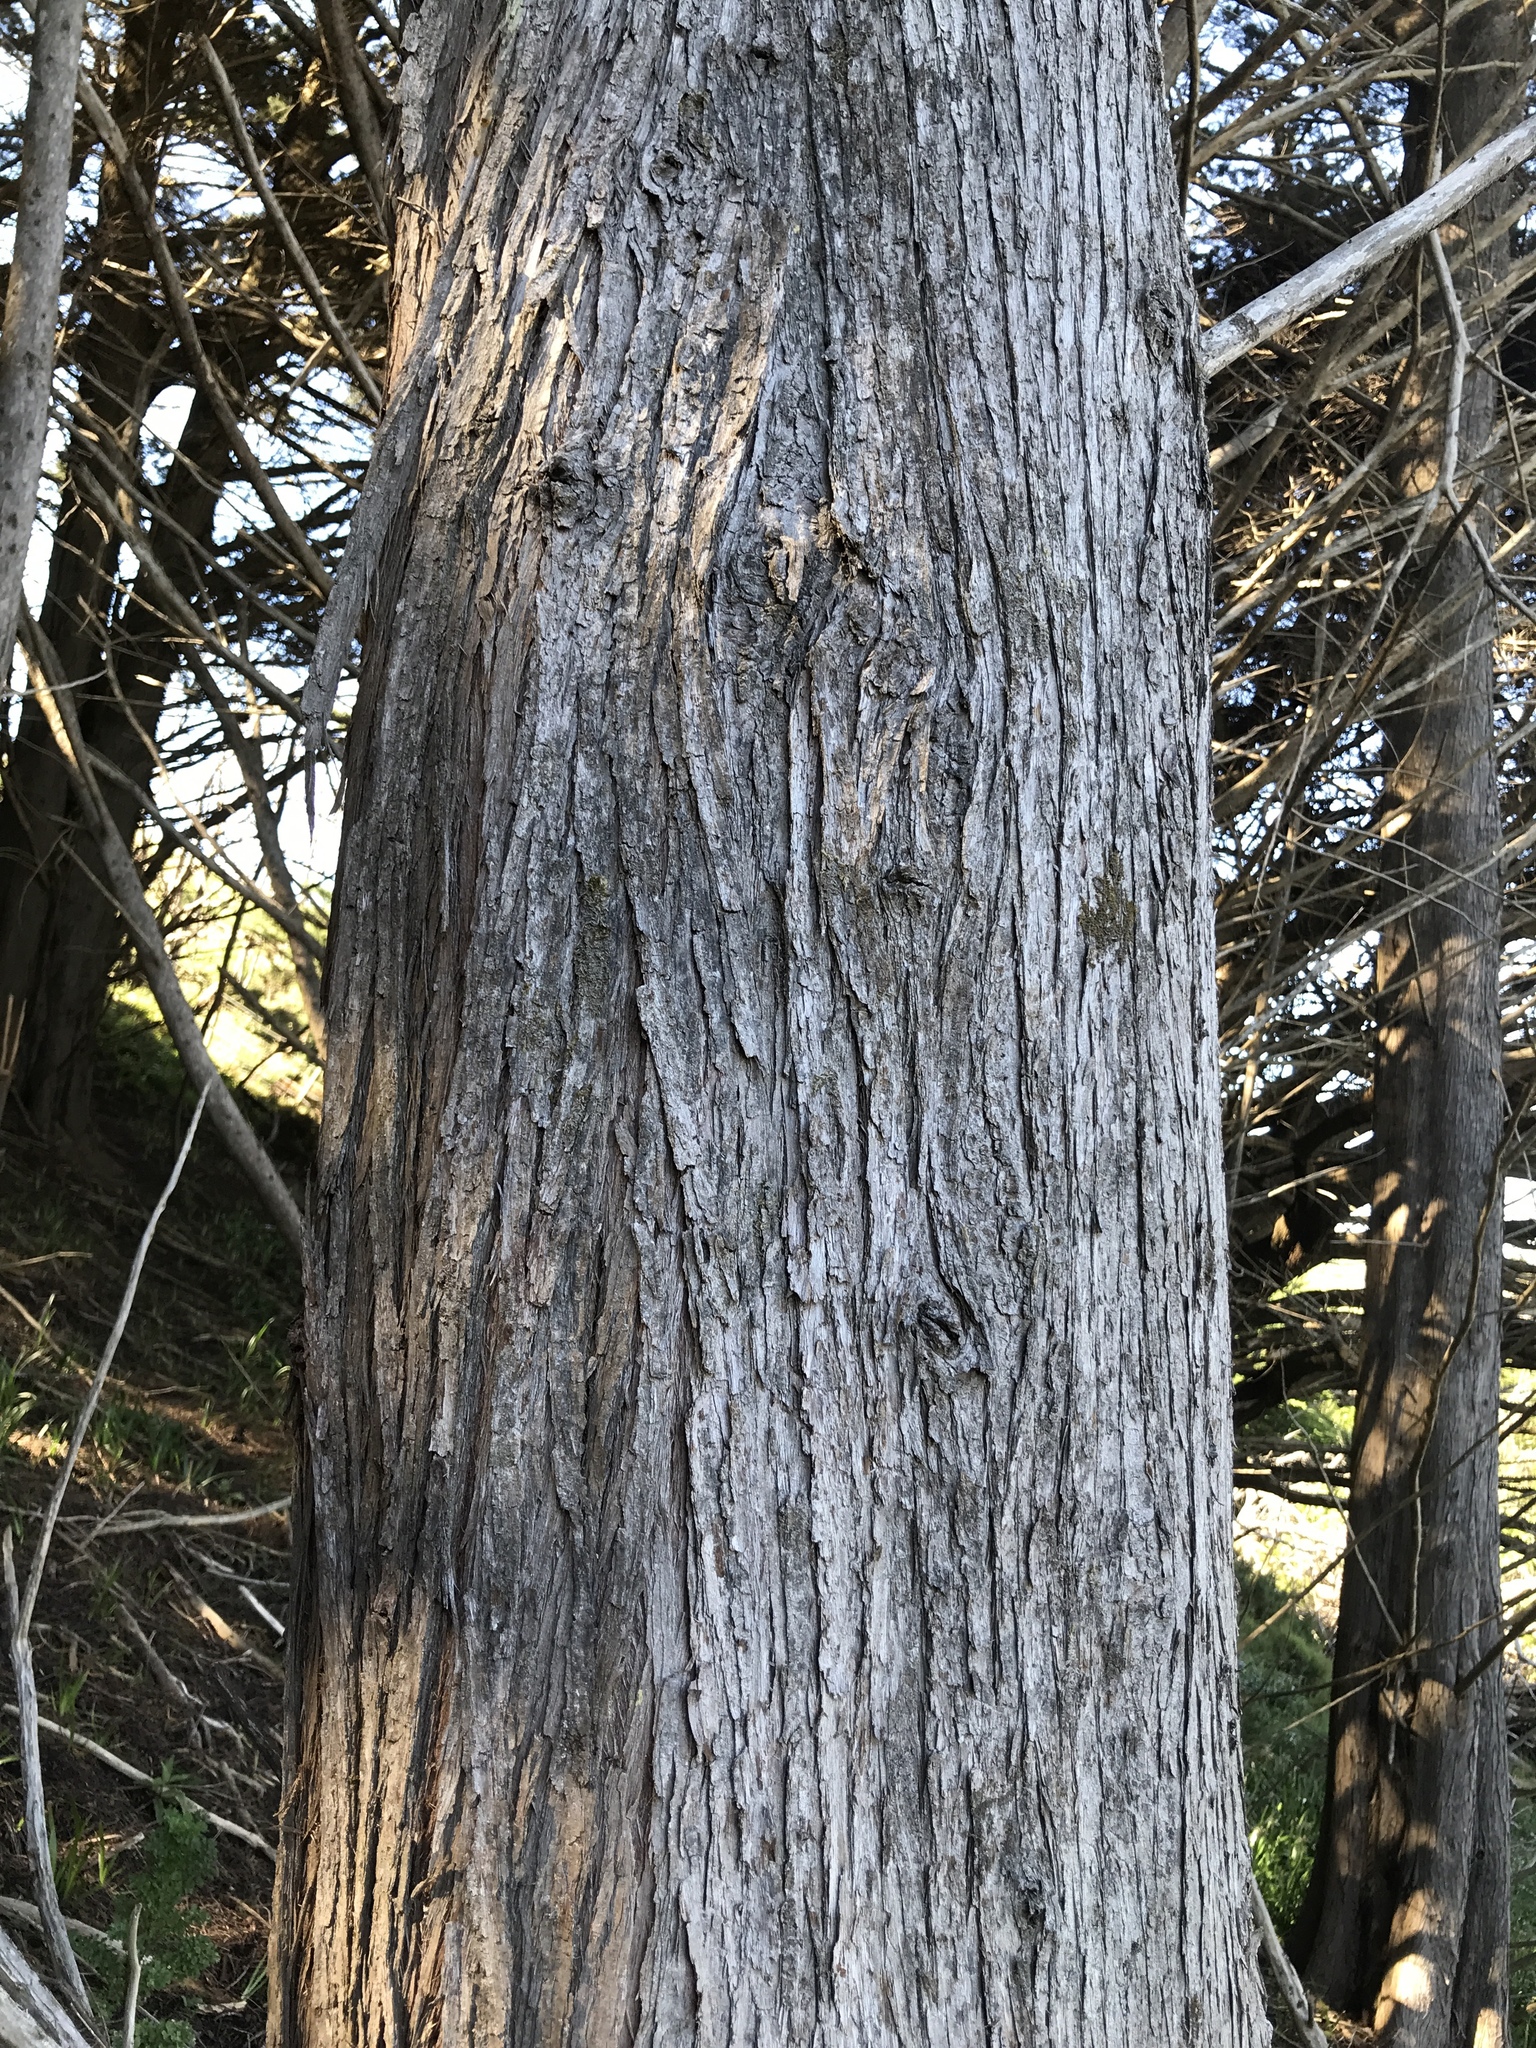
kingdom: Plantae
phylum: Tracheophyta
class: Pinopsida
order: Pinales
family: Cupressaceae
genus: Cupressus
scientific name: Cupressus macrocarpa
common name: Monterey cypress
